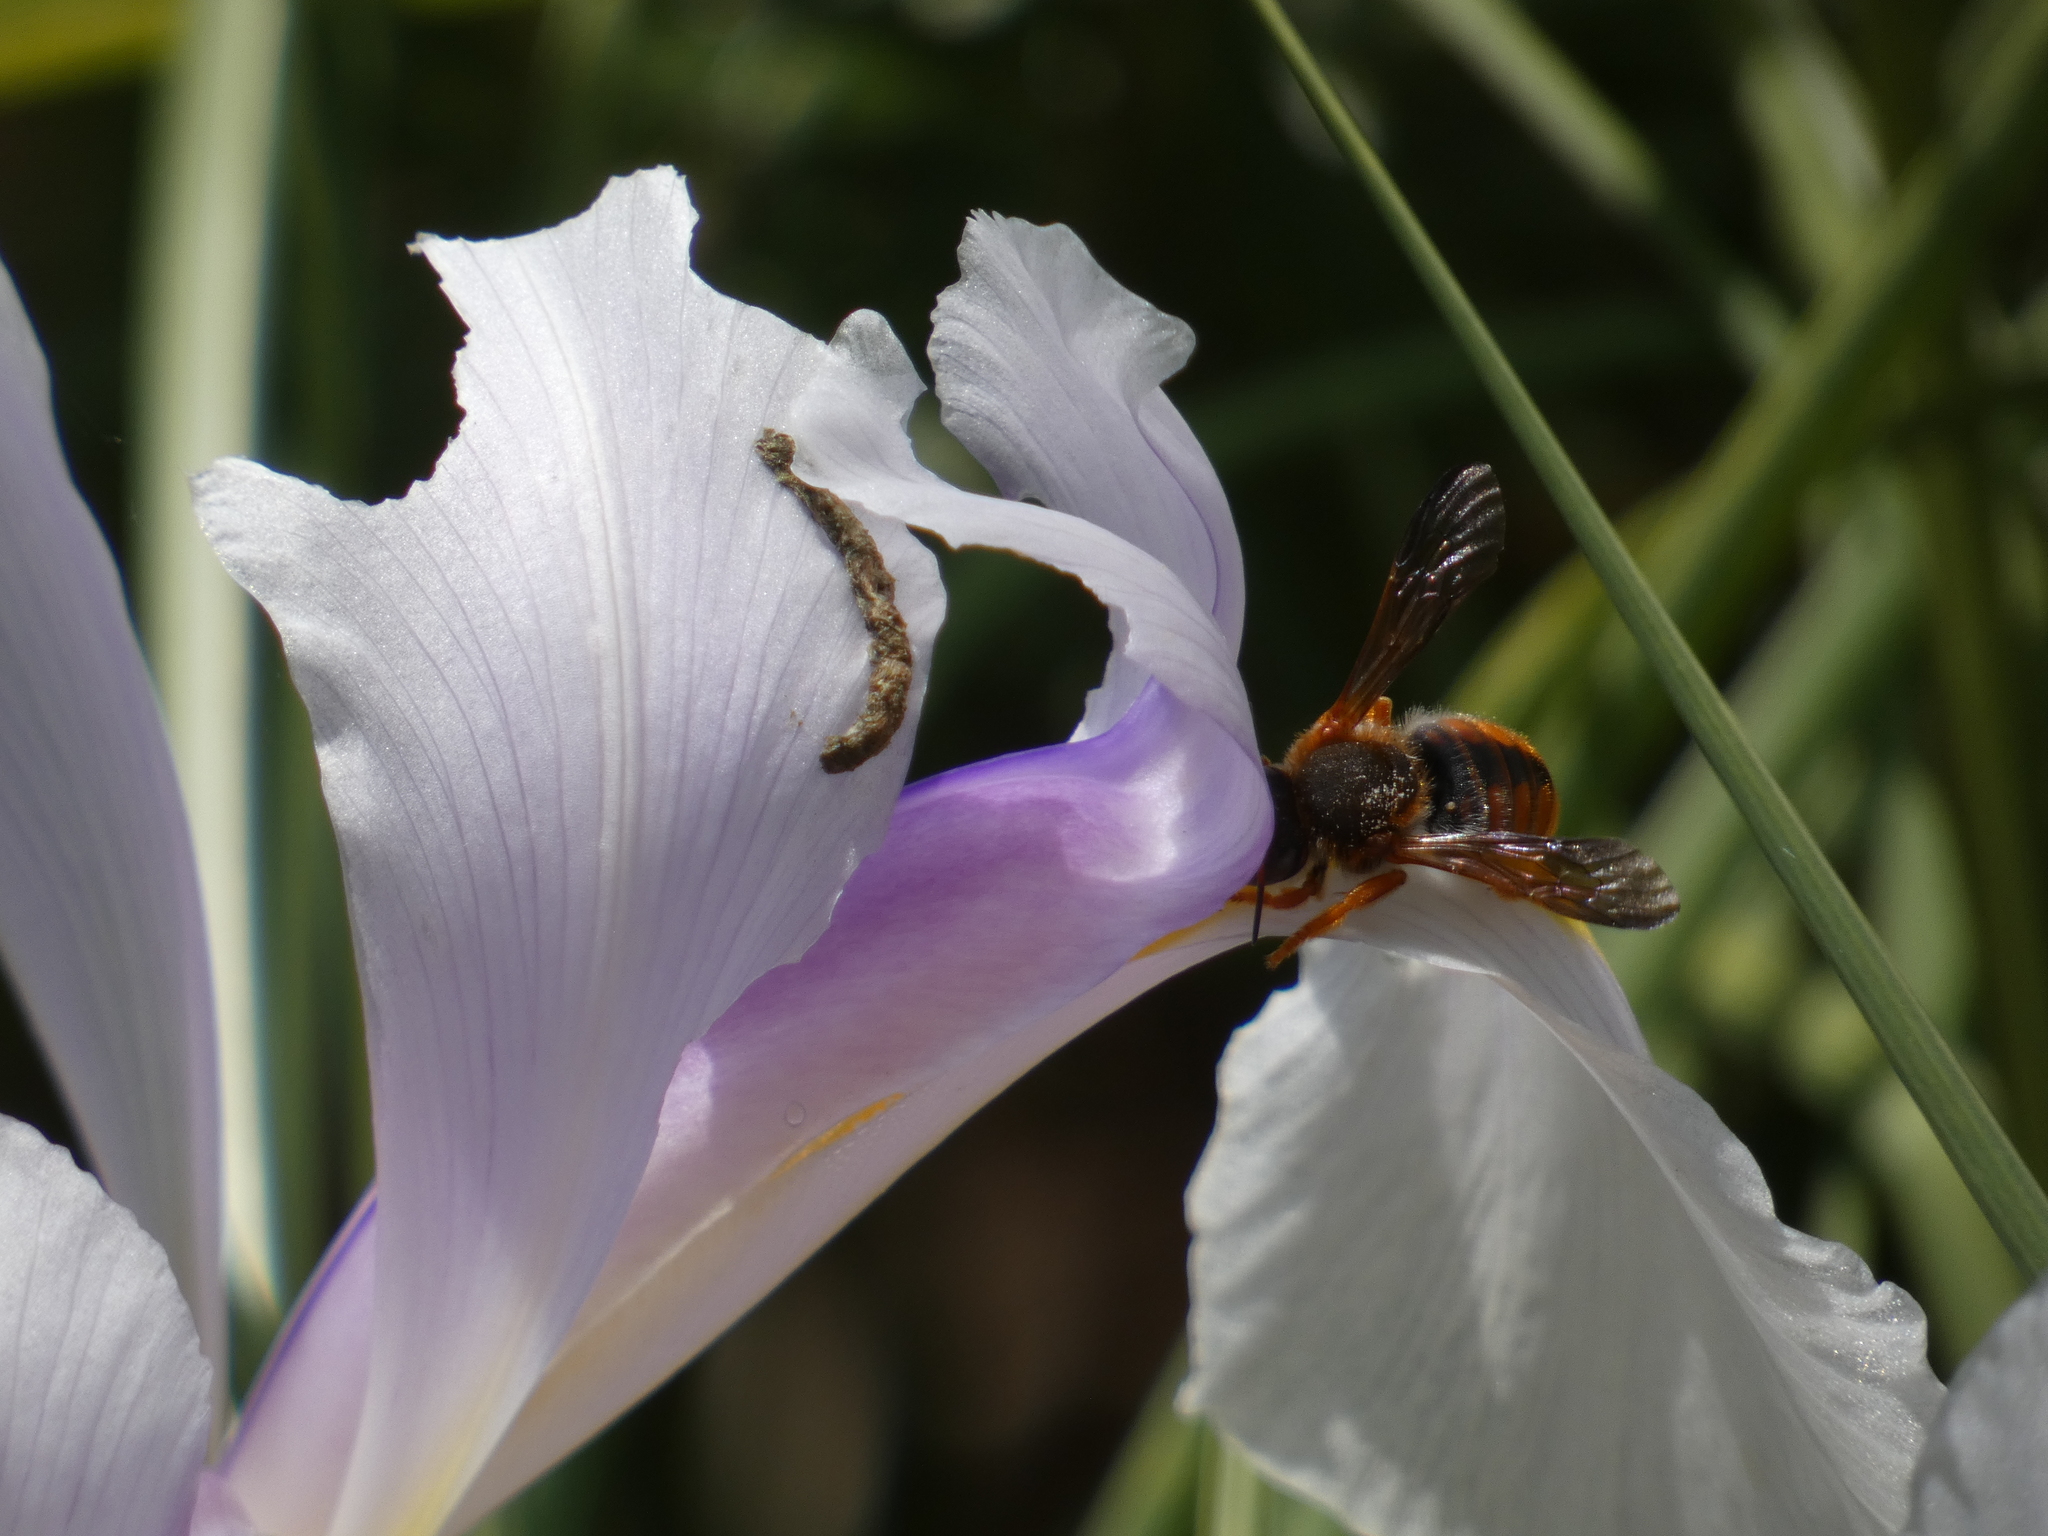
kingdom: Animalia
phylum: Arthropoda
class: Insecta
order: Hymenoptera
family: Megachilidae
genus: Rhodanthidium
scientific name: Rhodanthidium sticticum
